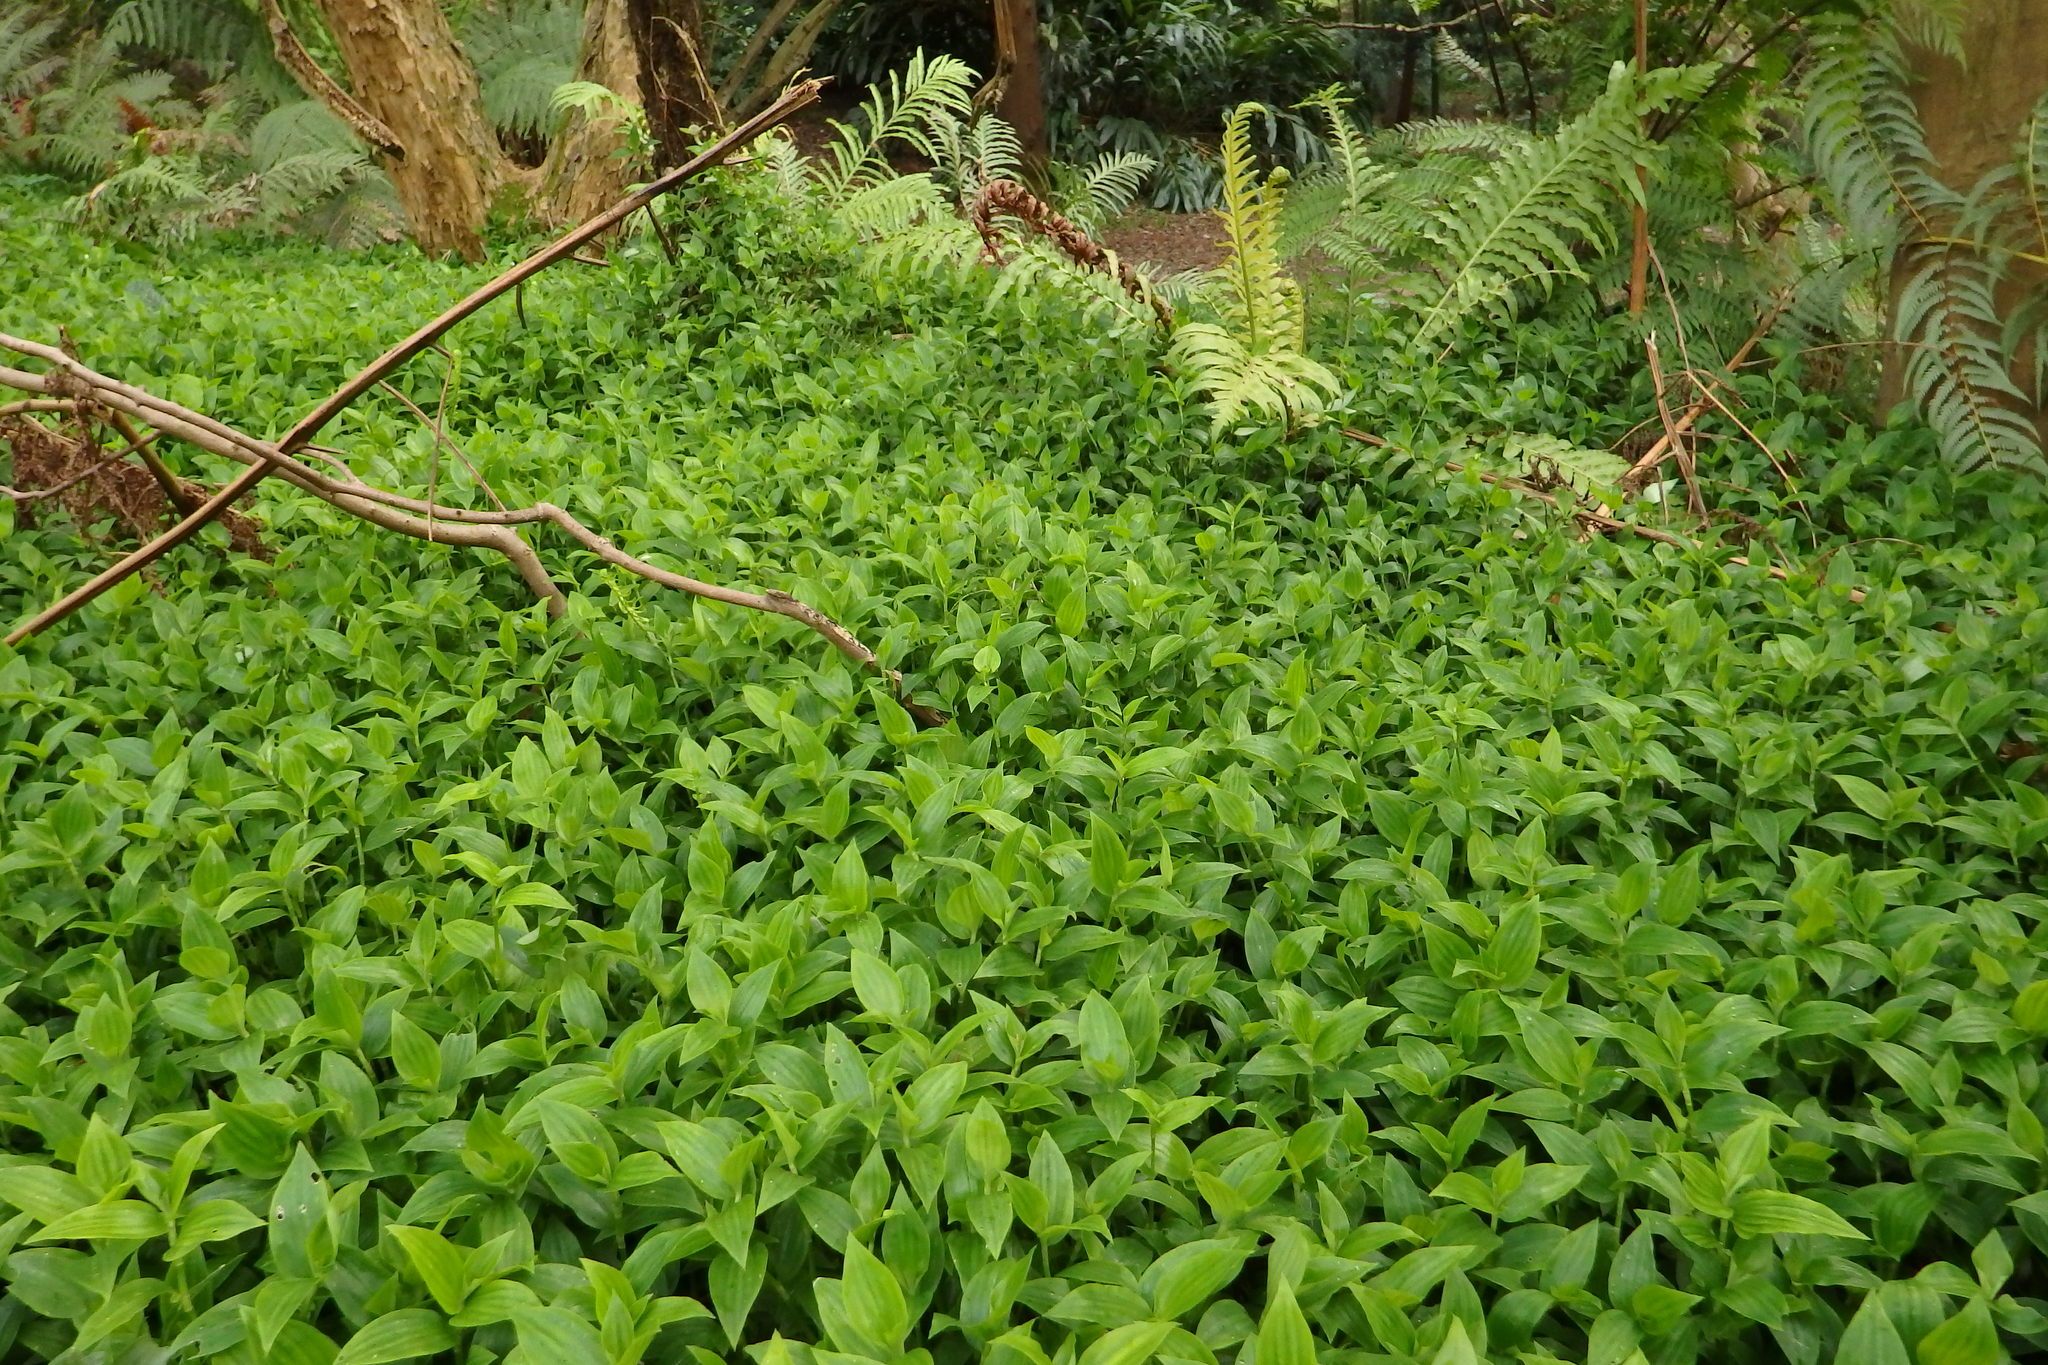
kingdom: Plantae
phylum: Tracheophyta
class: Liliopsida
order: Commelinales
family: Commelinaceae
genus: Tradescantia
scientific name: Tradescantia fluminensis
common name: Wandering-jew
